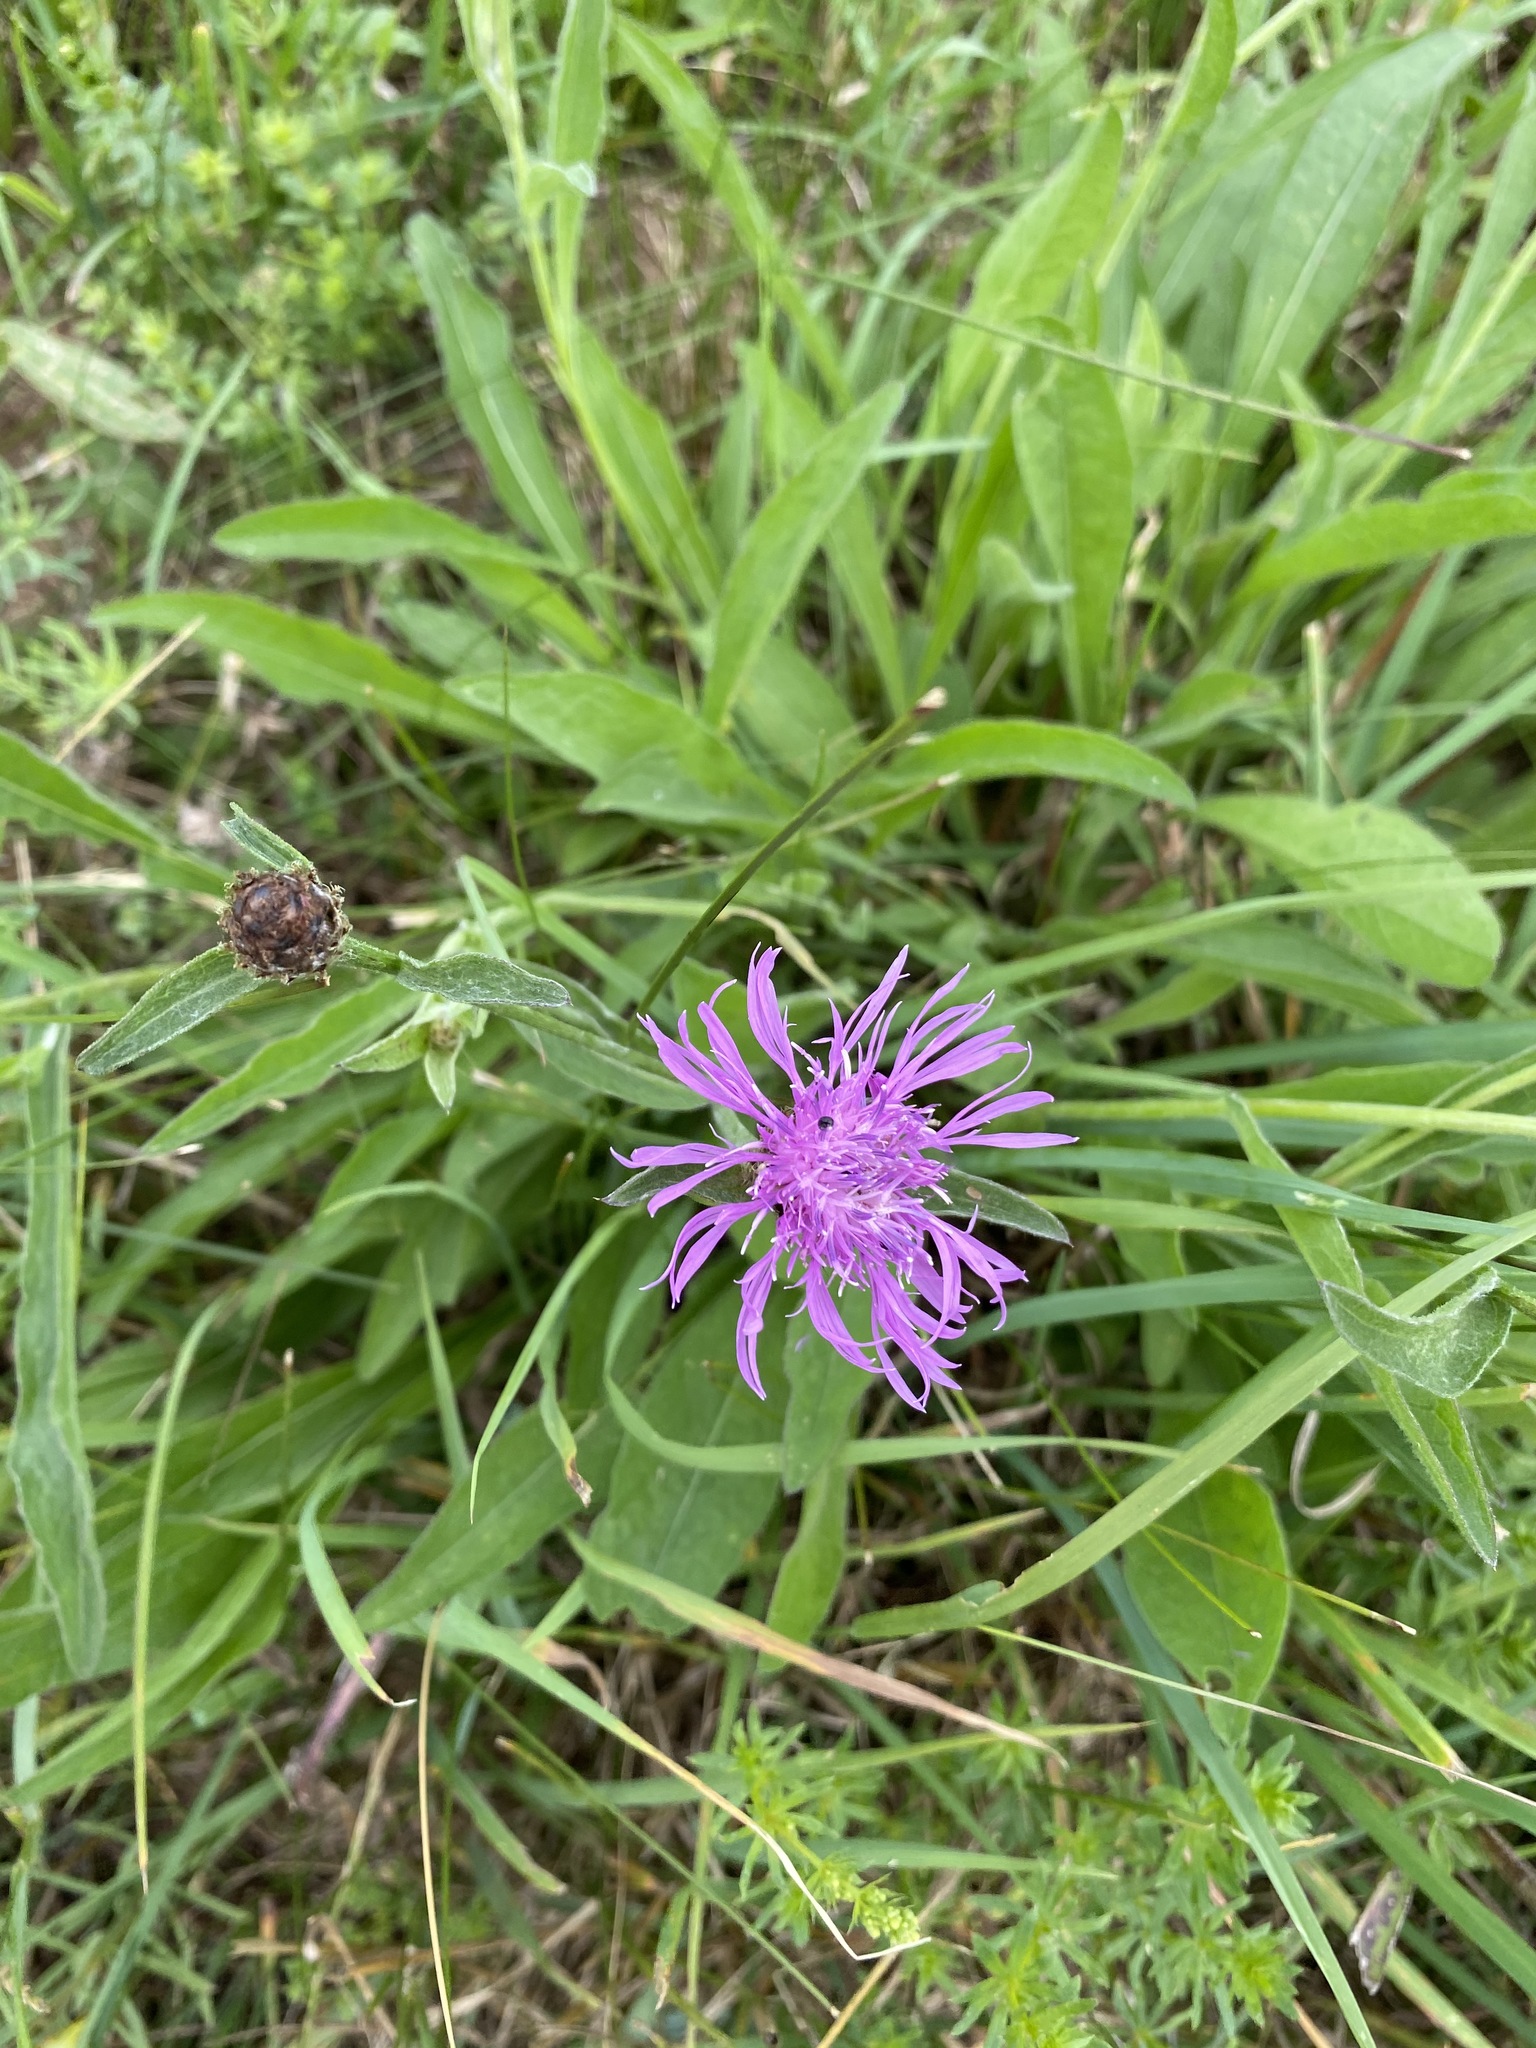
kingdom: Plantae
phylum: Tracheophyta
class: Magnoliopsida
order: Asterales
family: Asteraceae
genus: Centaurea
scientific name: Centaurea jacea
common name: Brown knapweed
